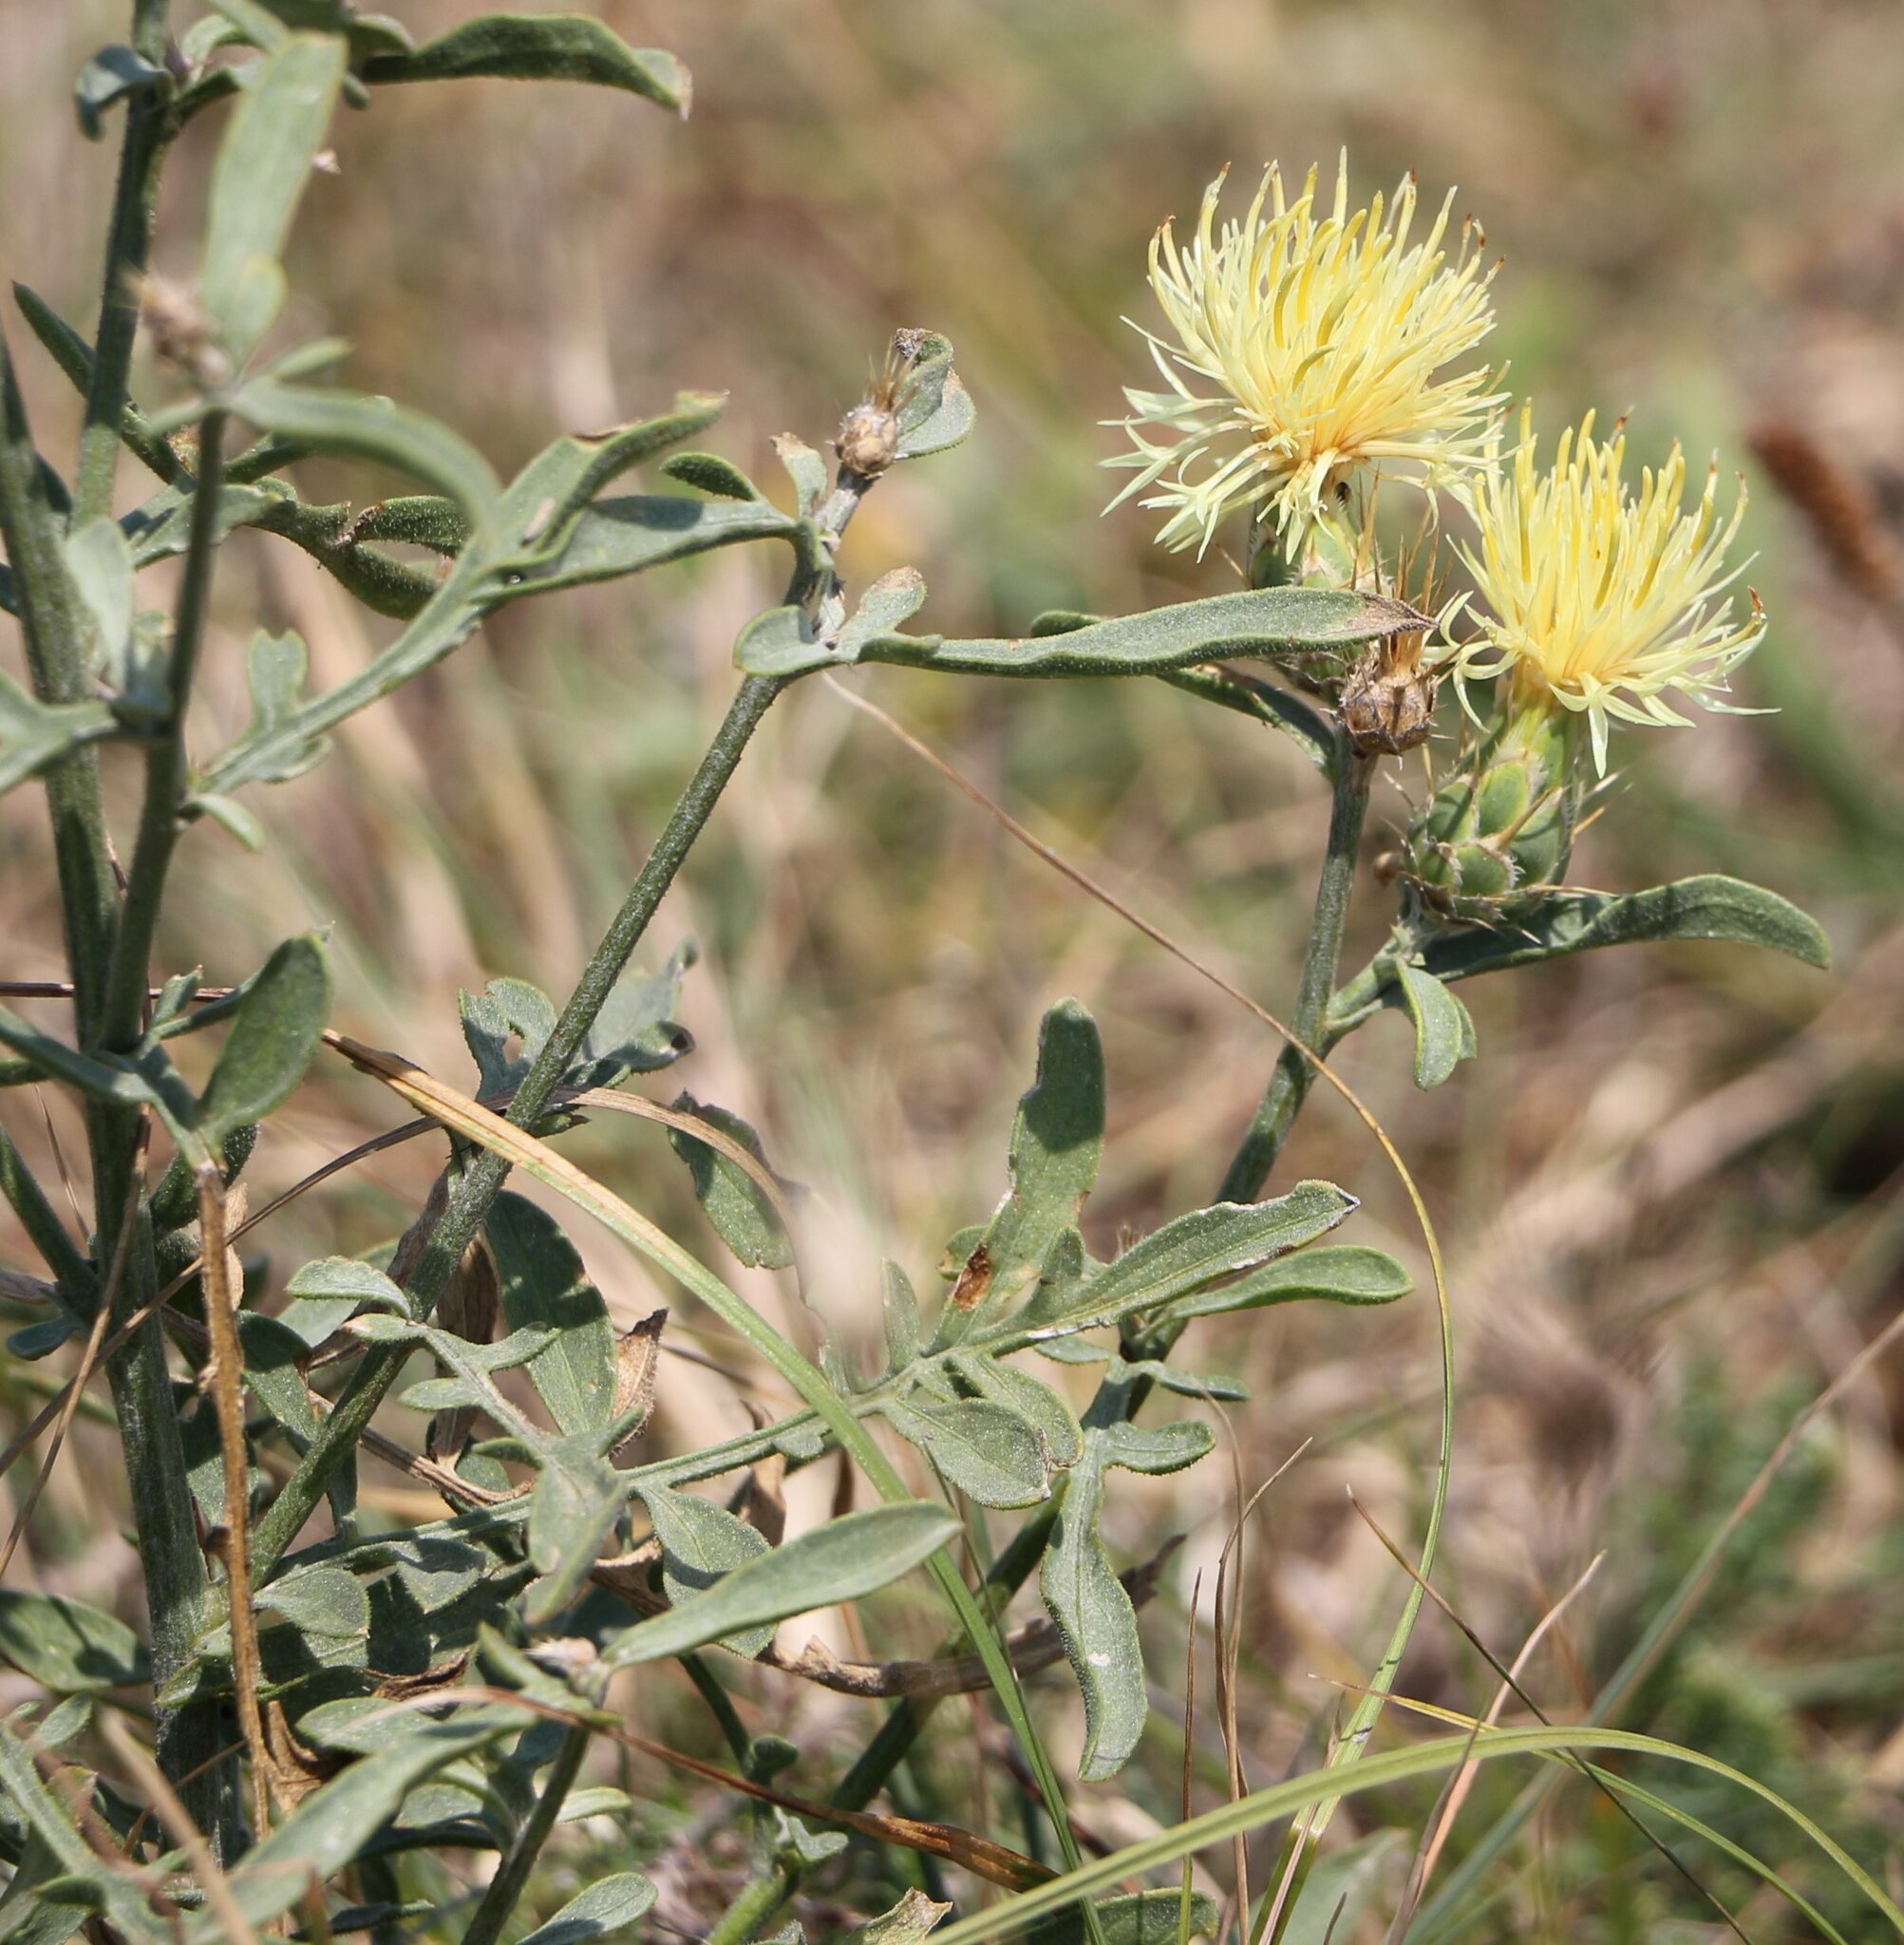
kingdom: Plantae
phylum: Tracheophyta
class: Magnoliopsida
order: Asterales
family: Asteraceae
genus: Centaurea
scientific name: Centaurea salonitana
